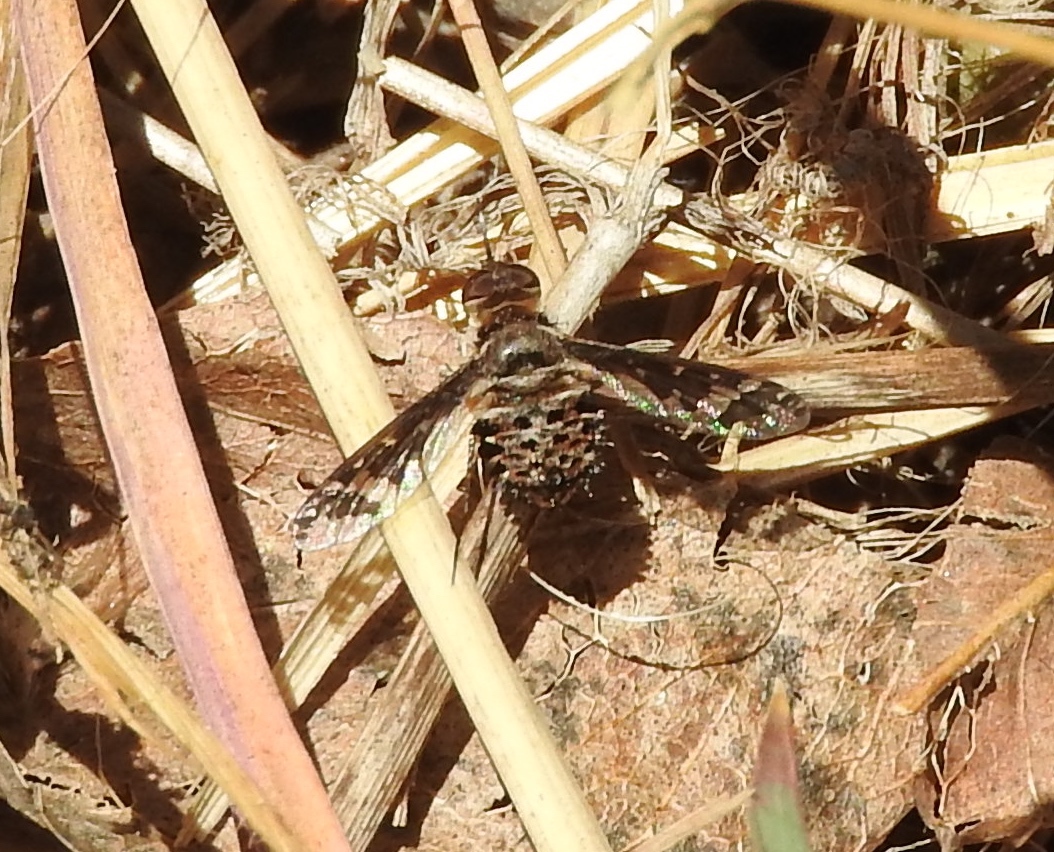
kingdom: Animalia
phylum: Arthropoda
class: Insecta
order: Diptera
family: Bombyliidae
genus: Lepidanthrax
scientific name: Lepidanthrax
